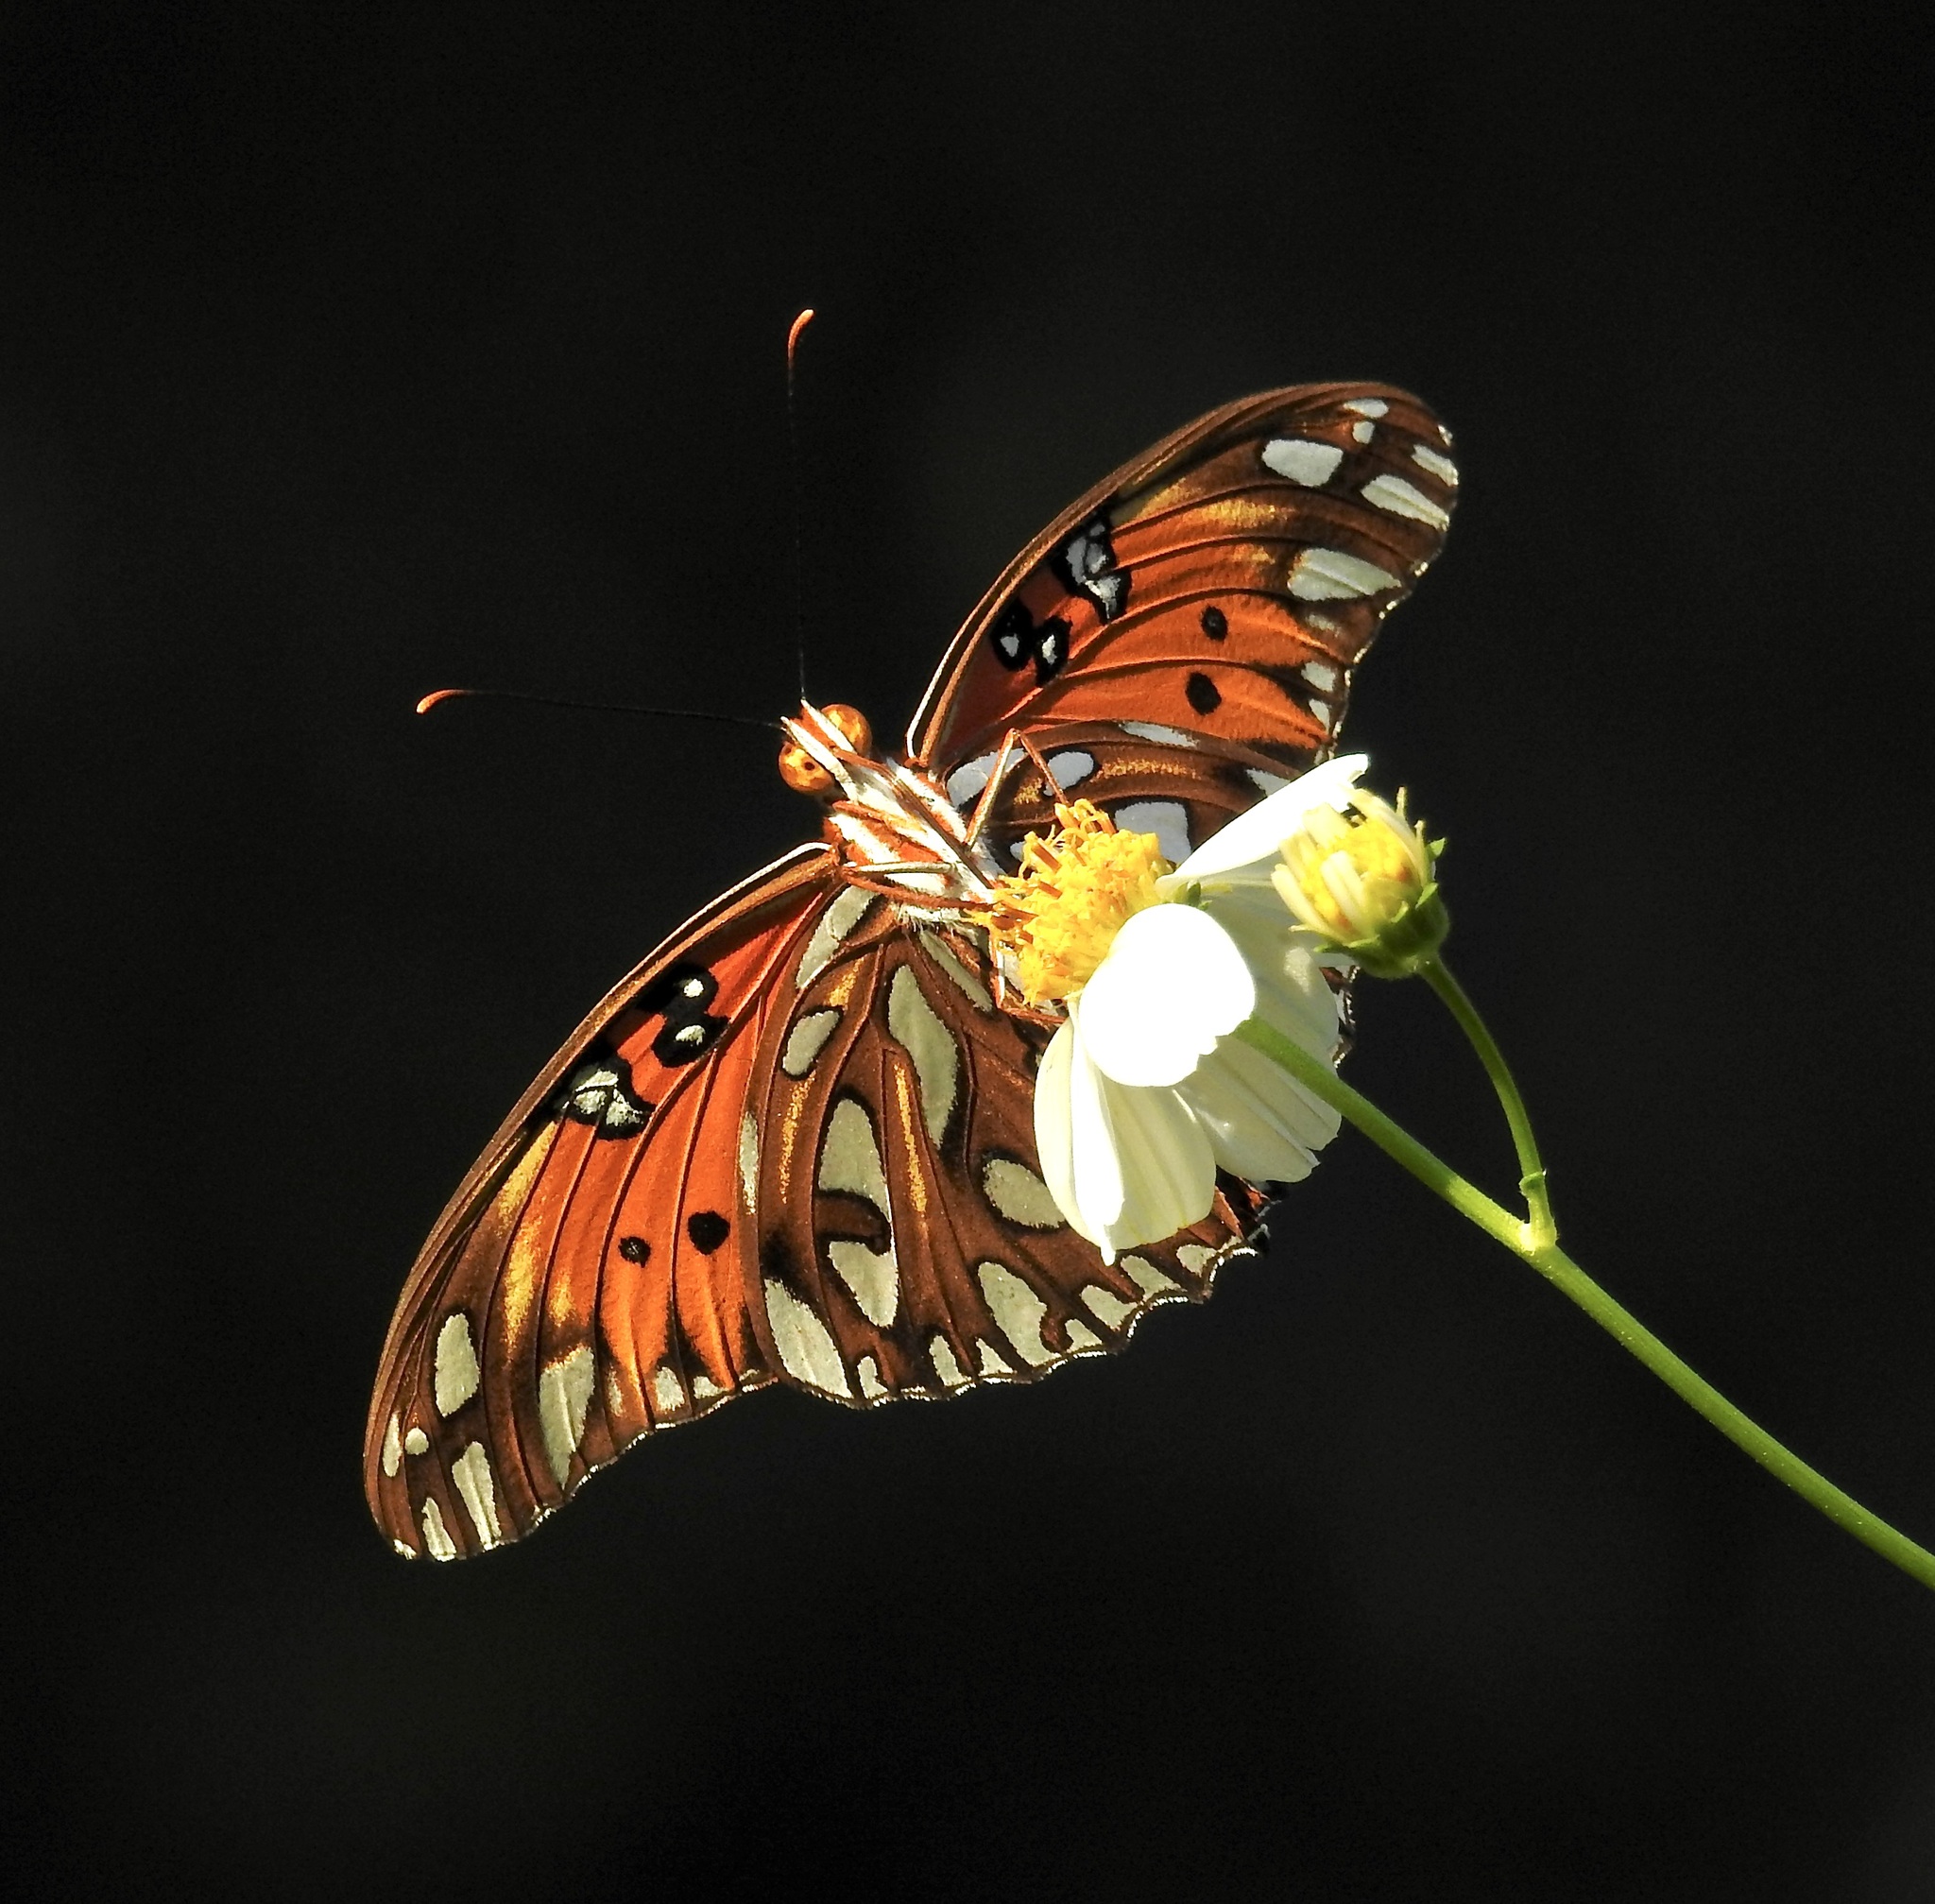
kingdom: Animalia
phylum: Arthropoda
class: Insecta
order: Lepidoptera
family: Nymphalidae
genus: Dione
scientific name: Dione vanillae
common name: Gulf fritillary
